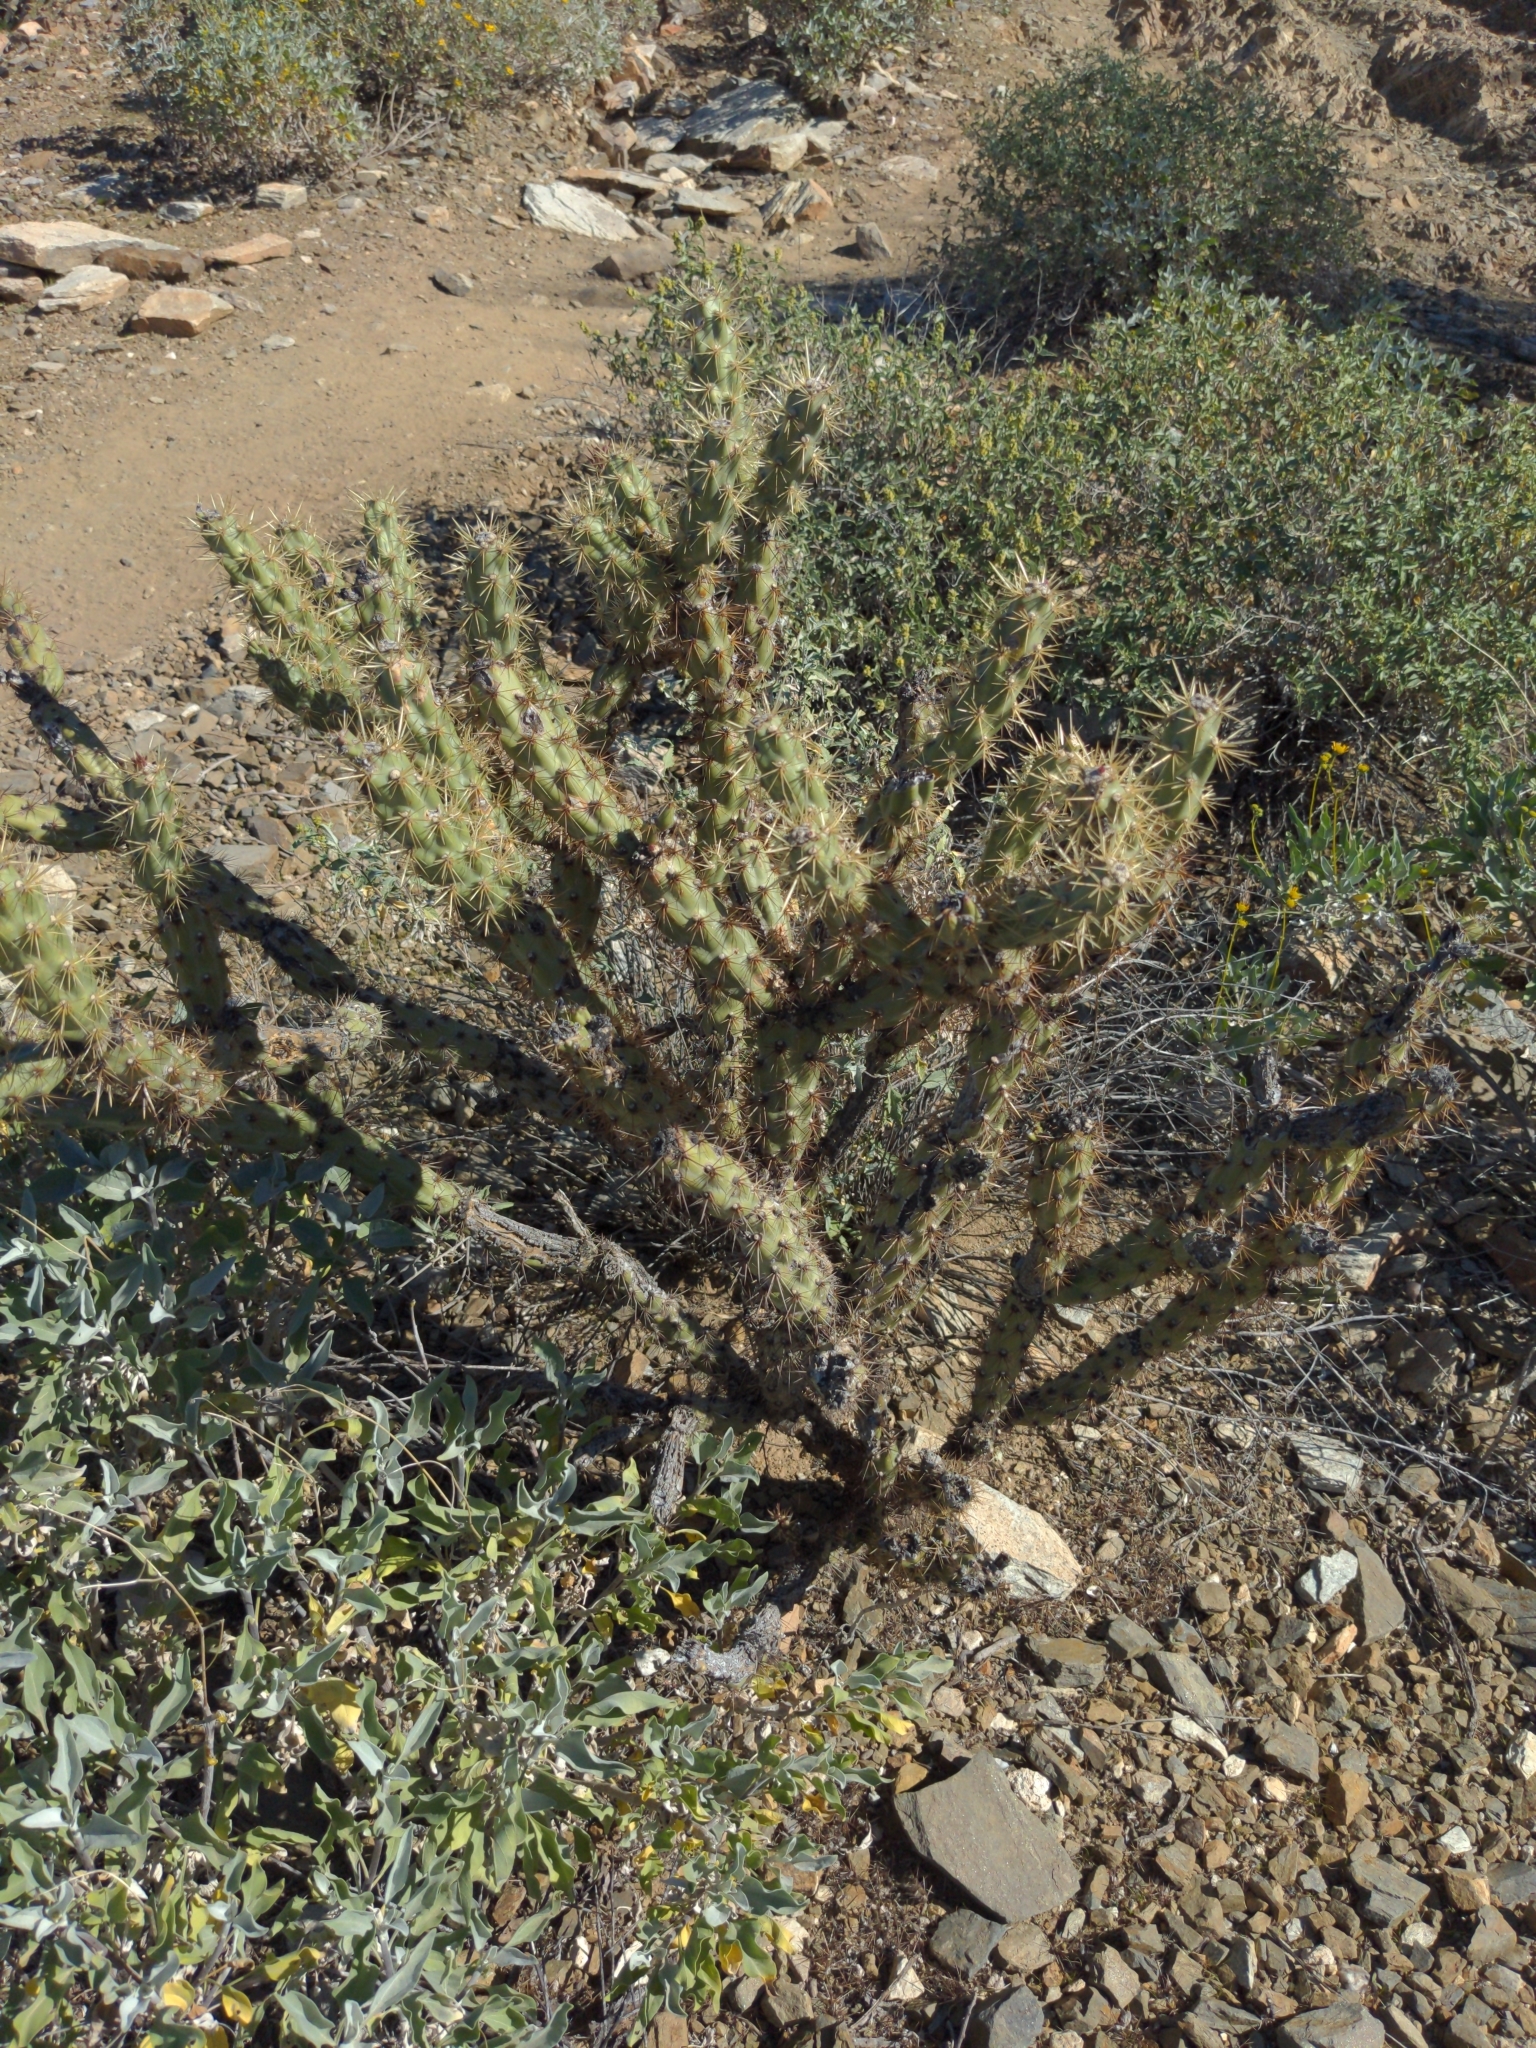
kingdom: Plantae
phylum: Tracheophyta
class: Magnoliopsida
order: Caryophyllales
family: Cactaceae
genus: Cylindropuntia
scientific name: Cylindropuntia acanthocarpa
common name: Buckhorn cholla
